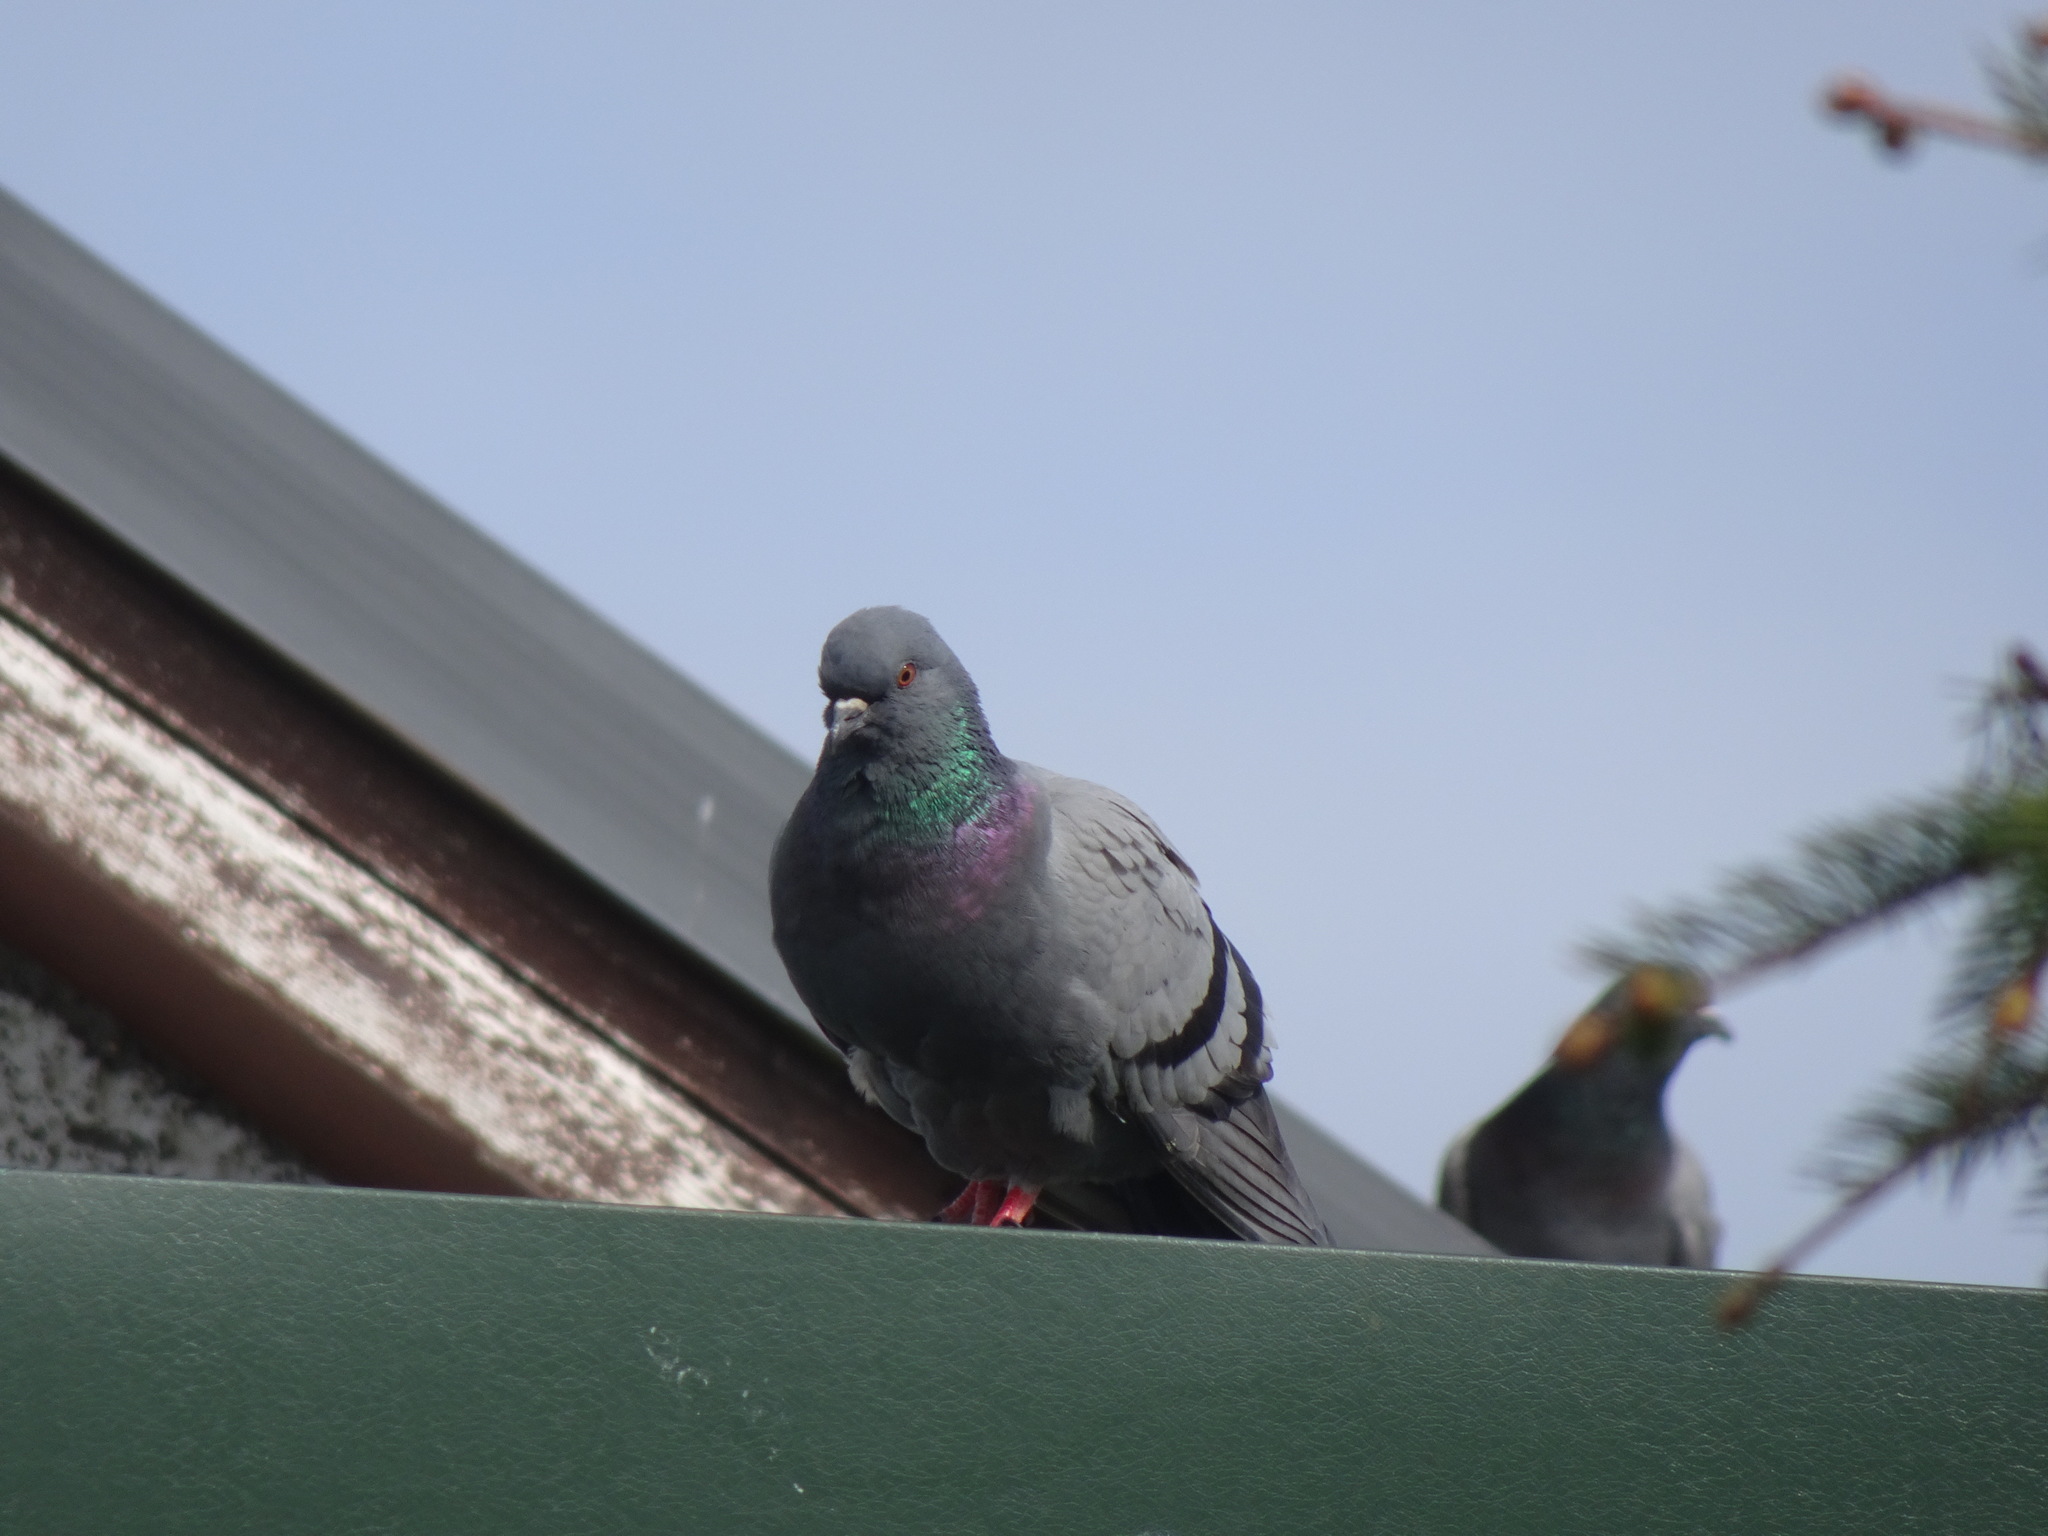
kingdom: Animalia
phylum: Chordata
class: Aves
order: Columbiformes
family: Columbidae
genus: Columba
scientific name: Columba livia
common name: Rock pigeon
